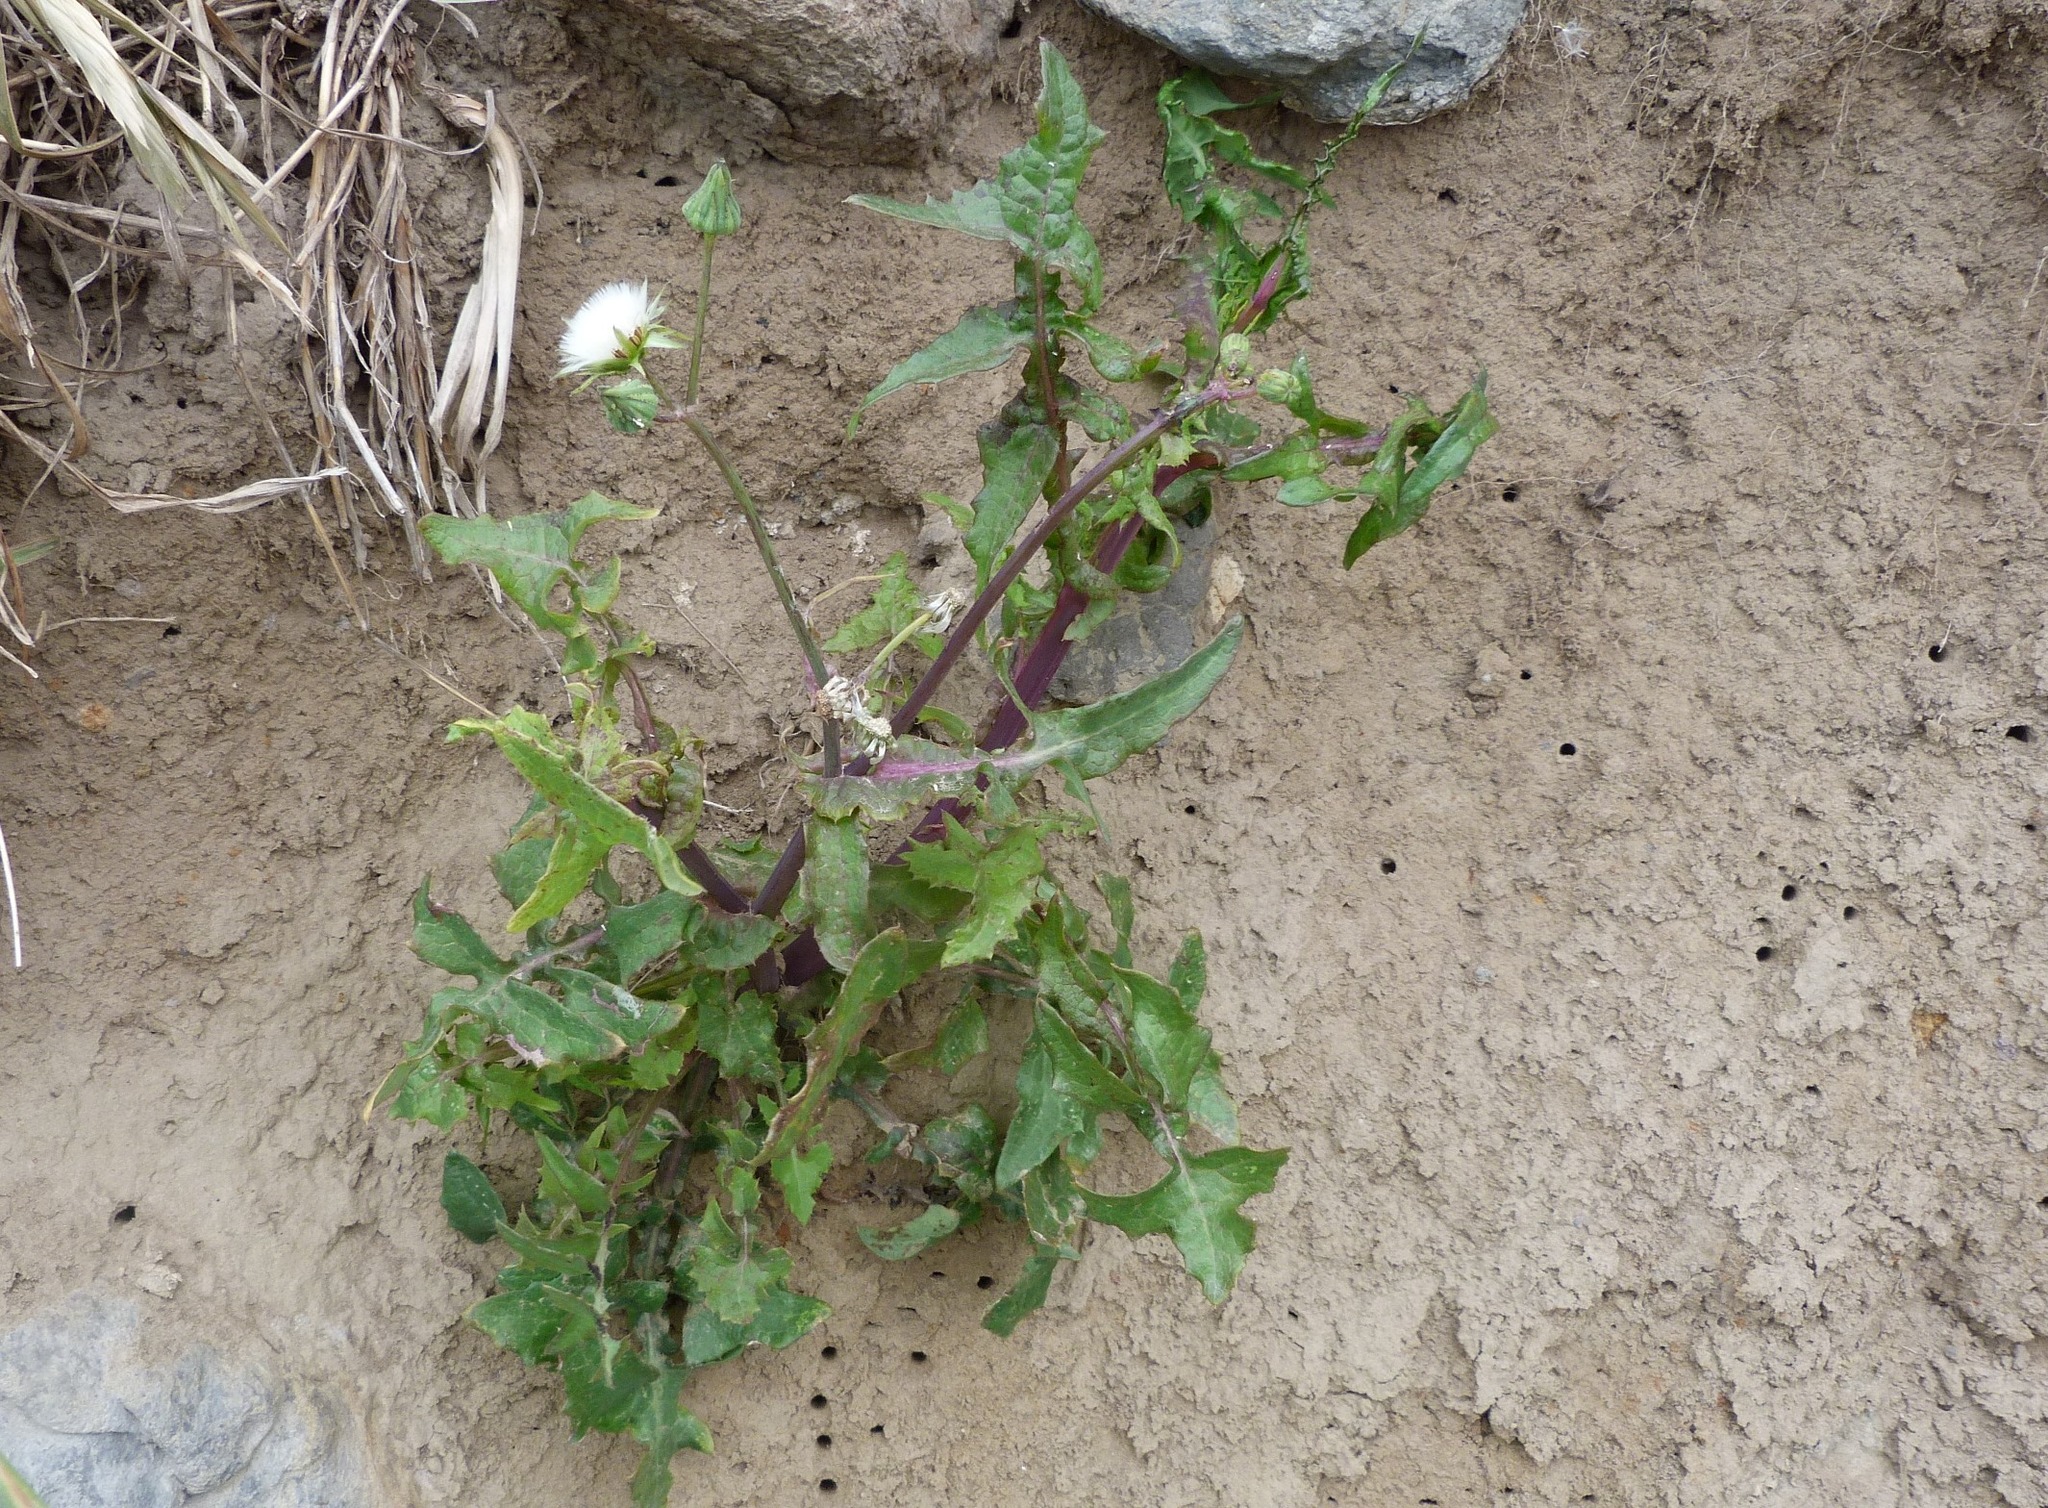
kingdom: Plantae
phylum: Tracheophyta
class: Magnoliopsida
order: Asterales
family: Asteraceae
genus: Sonchus
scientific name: Sonchus oleraceus
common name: Common sowthistle
